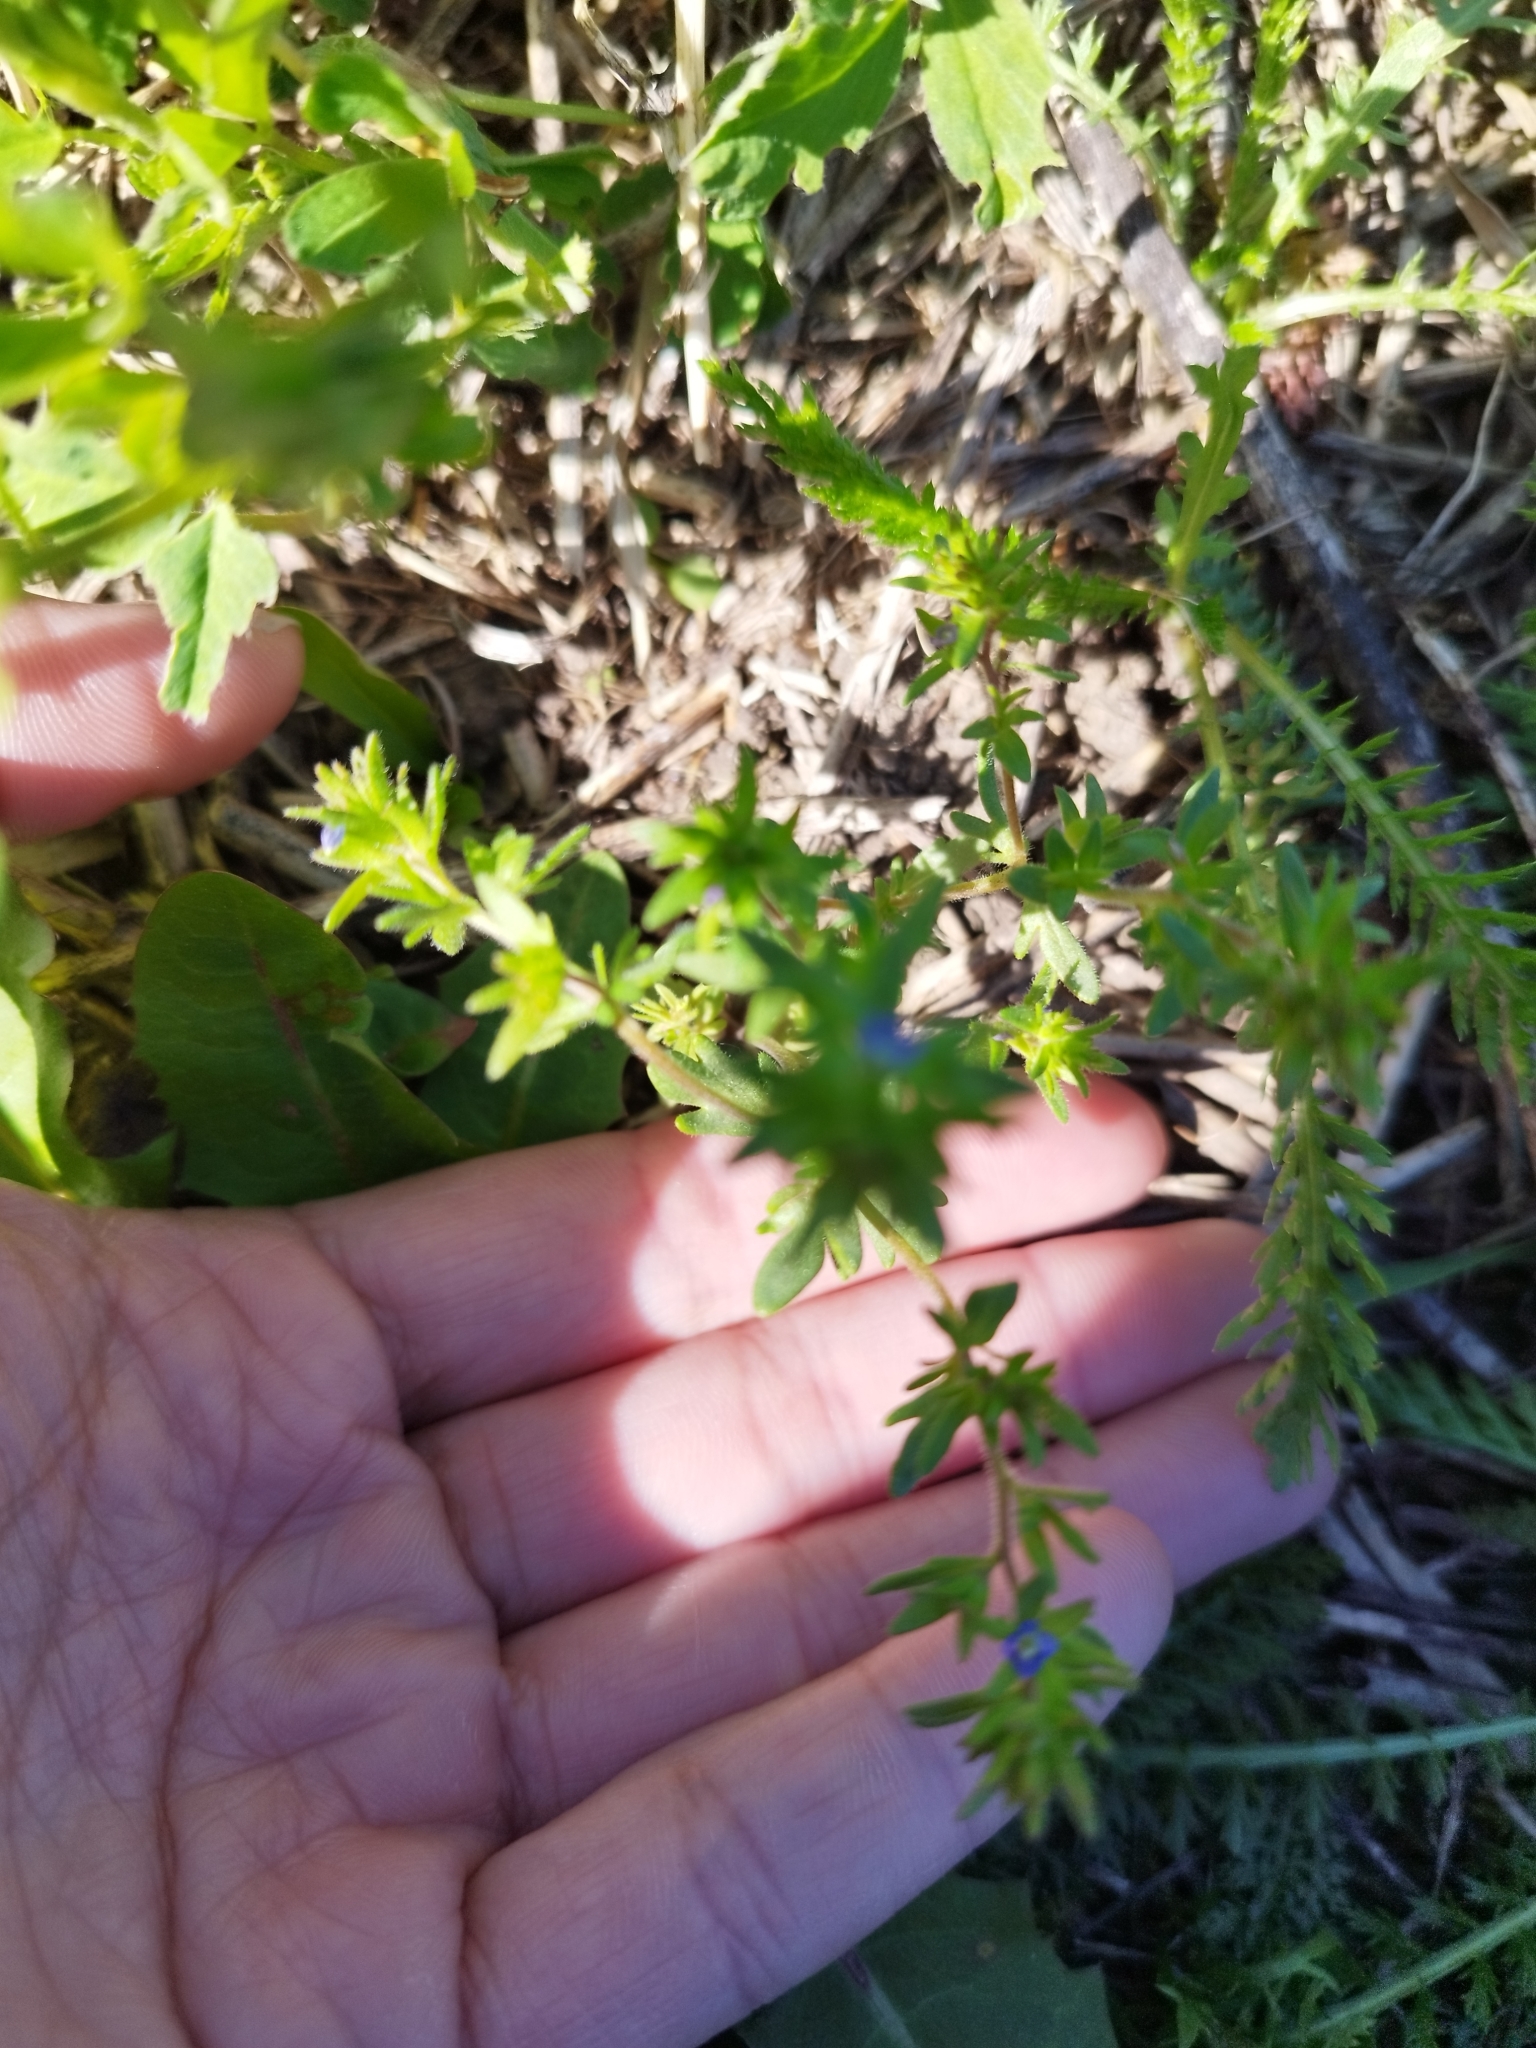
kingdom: Plantae
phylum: Tracheophyta
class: Magnoliopsida
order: Lamiales
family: Plantaginaceae
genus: Veronica
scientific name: Veronica verna
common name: Spring speedwell
